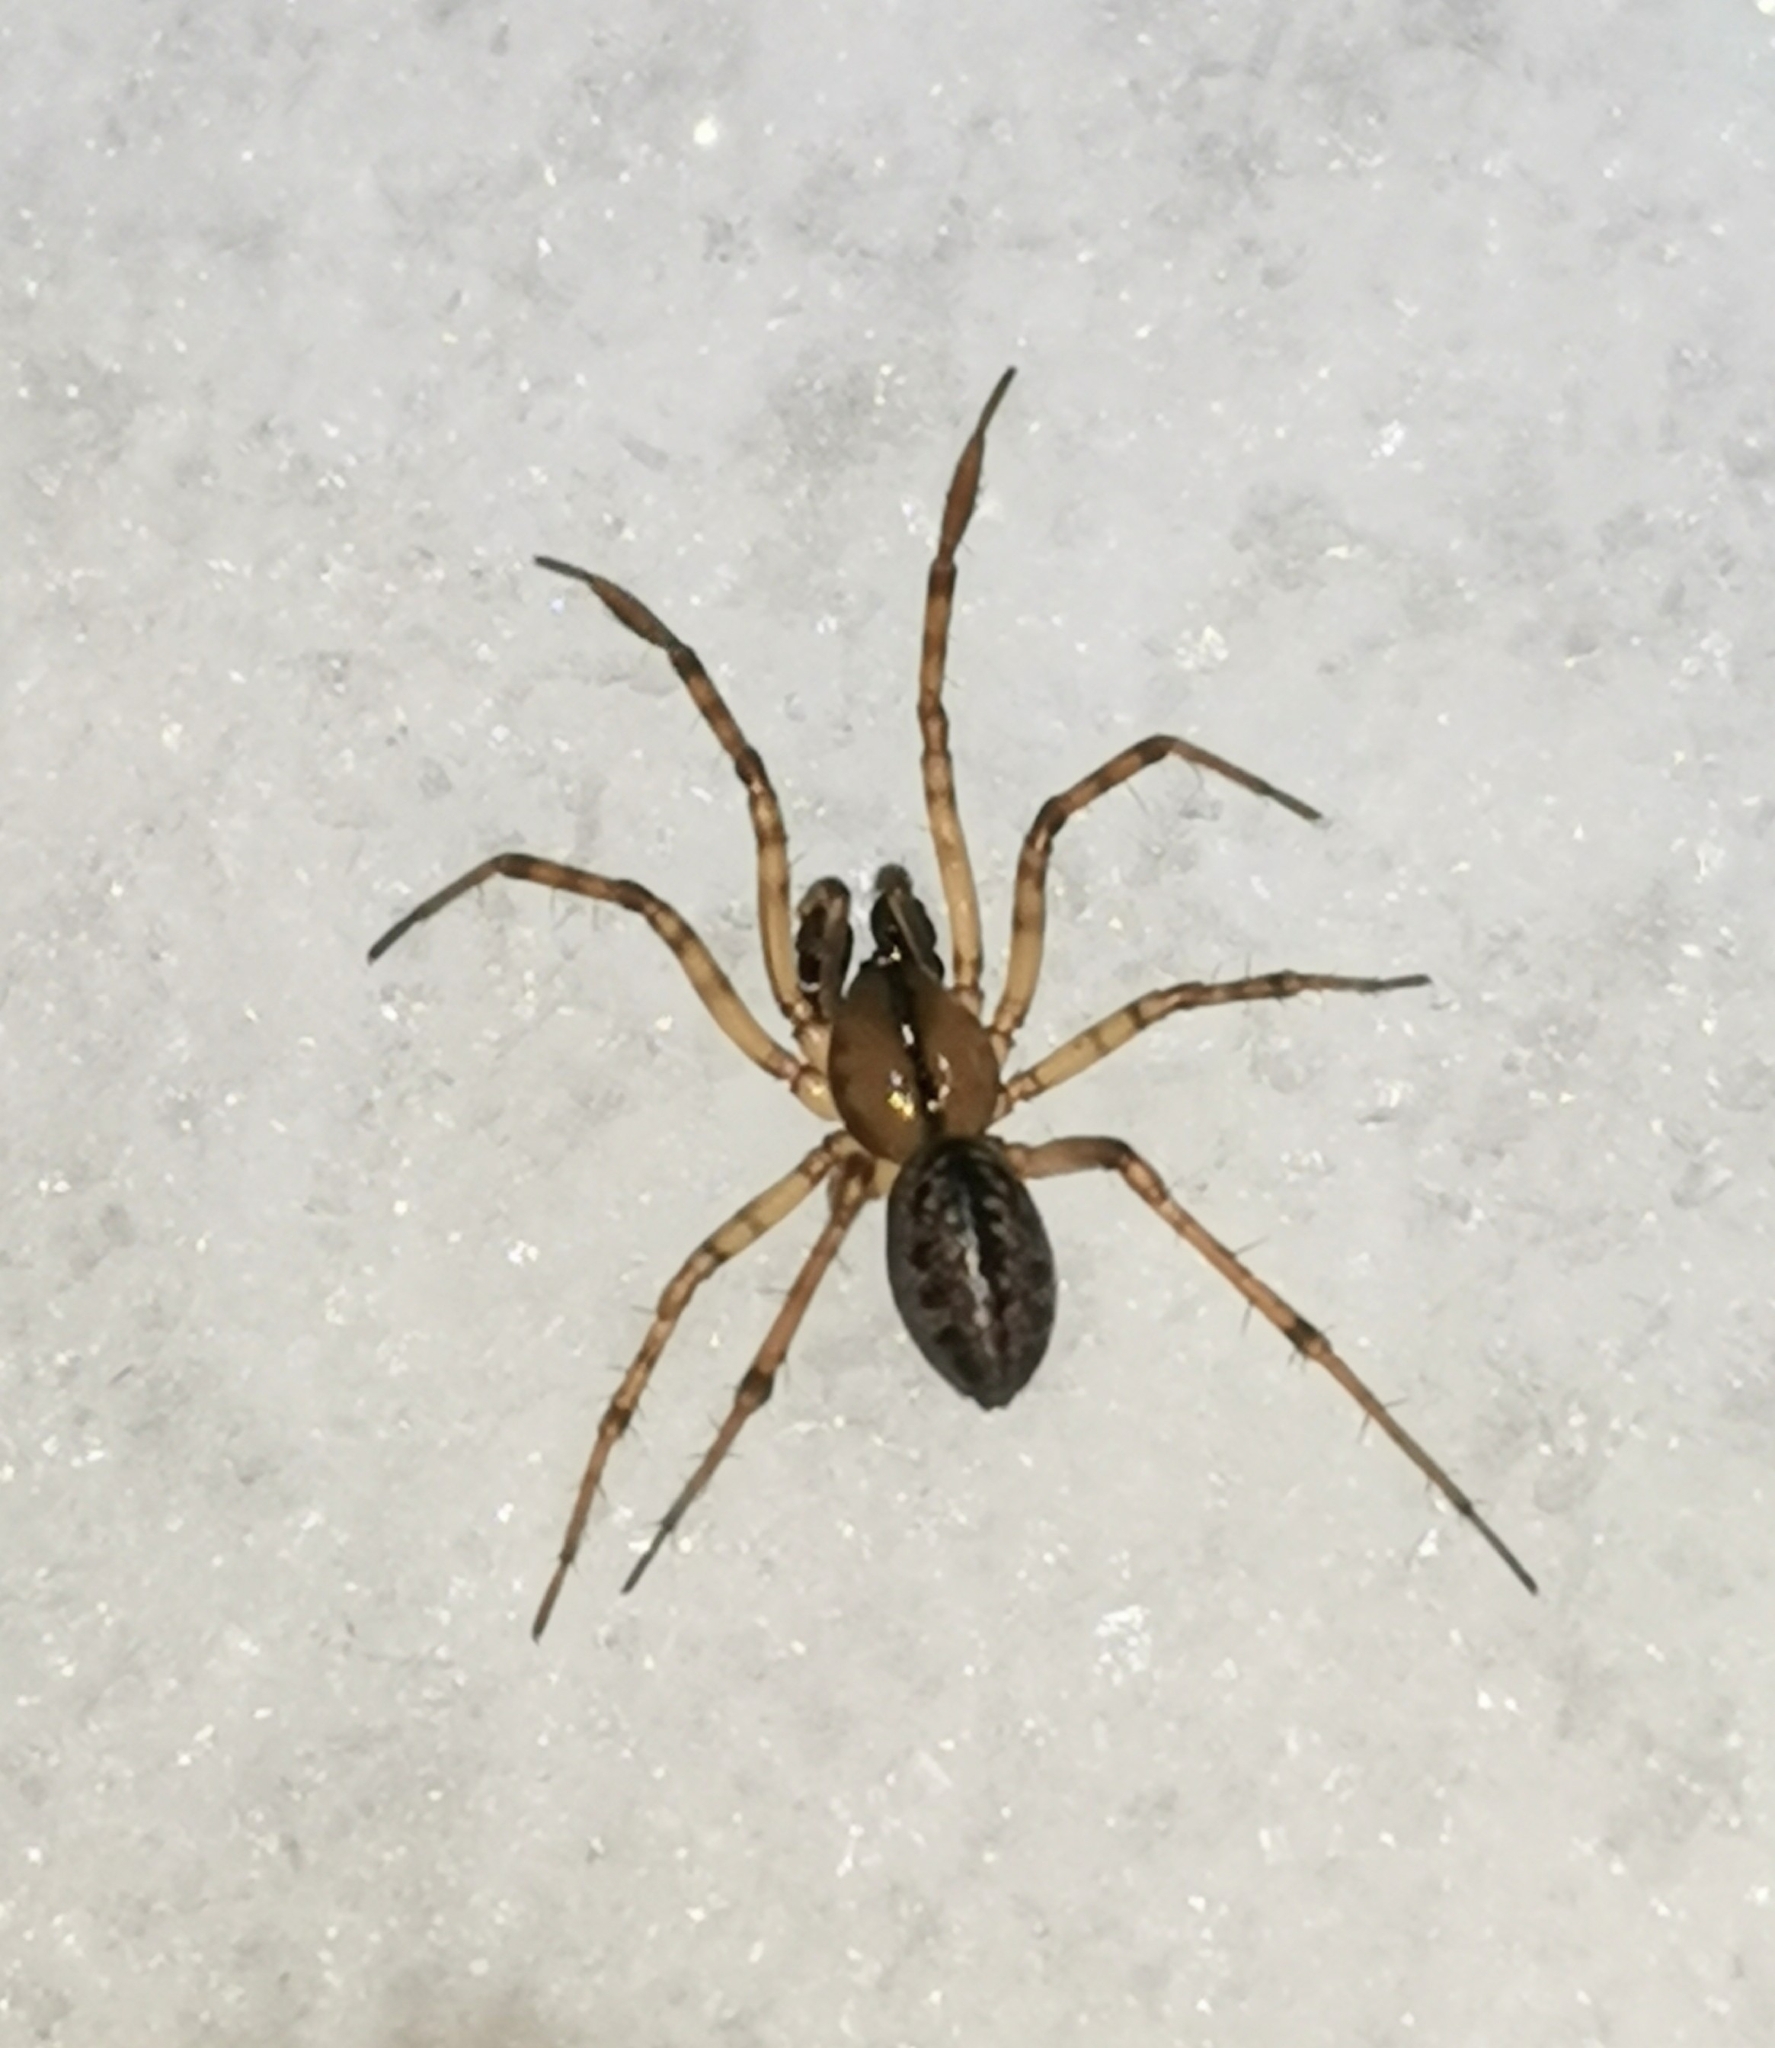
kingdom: Animalia
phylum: Arthropoda
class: Arachnida
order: Araneae
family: Linyphiidae
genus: Stemonyphantes
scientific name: Stemonyphantes lineatus
